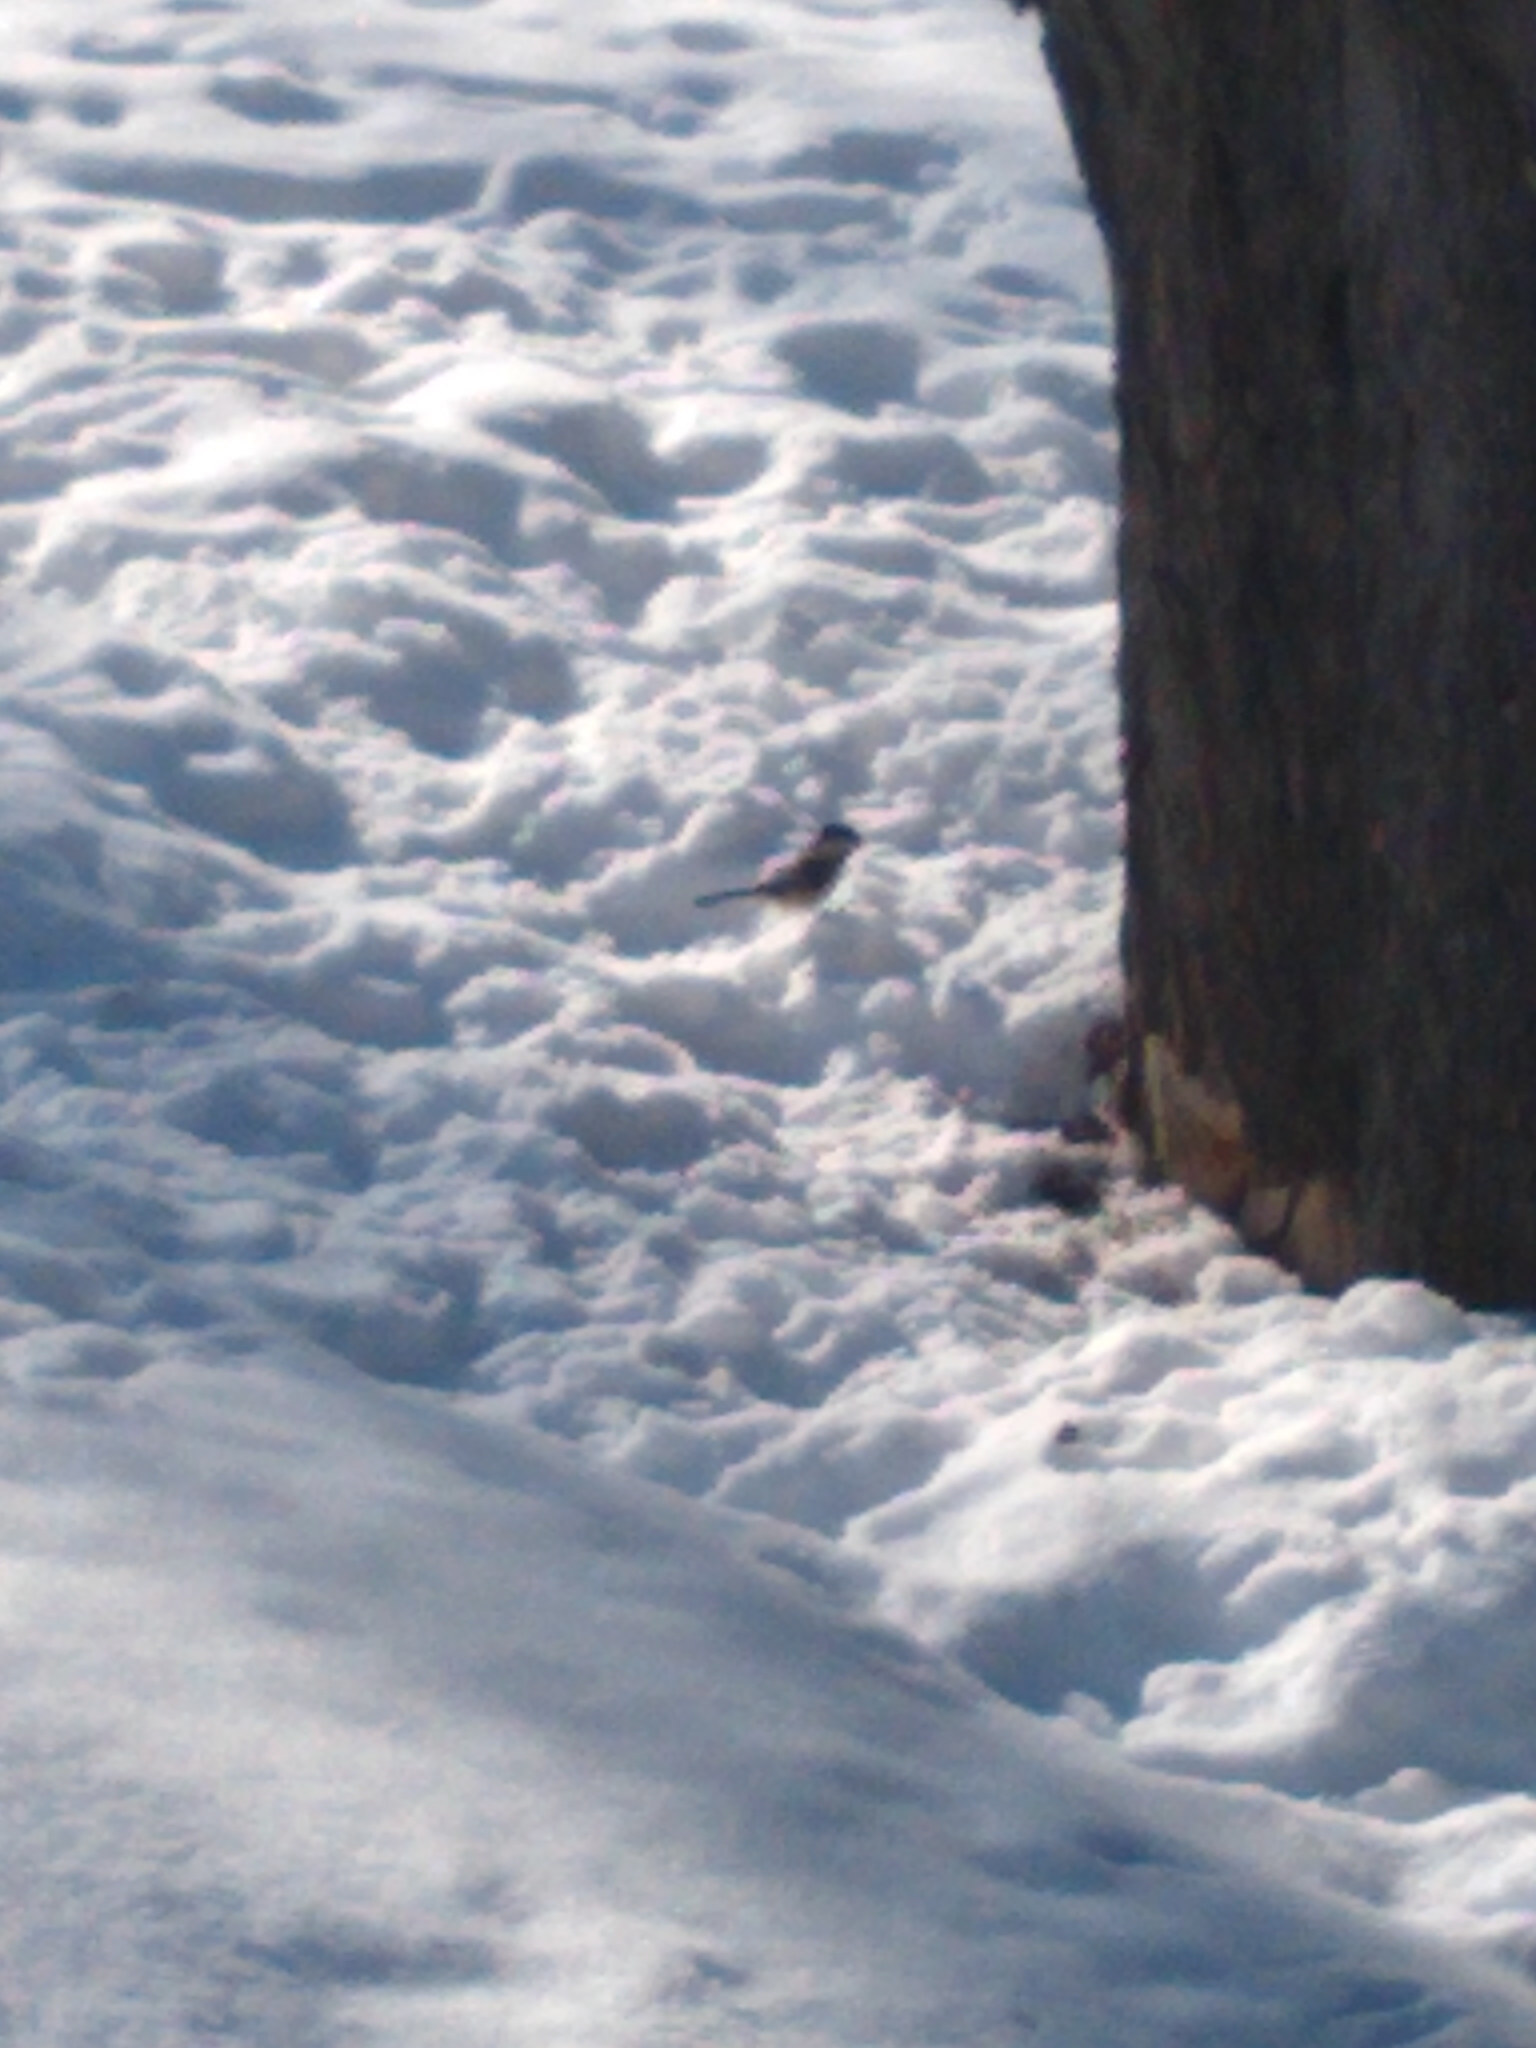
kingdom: Animalia
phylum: Chordata
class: Aves
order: Passeriformes
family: Paridae
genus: Poecile
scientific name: Poecile atricapillus
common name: Black-capped chickadee
